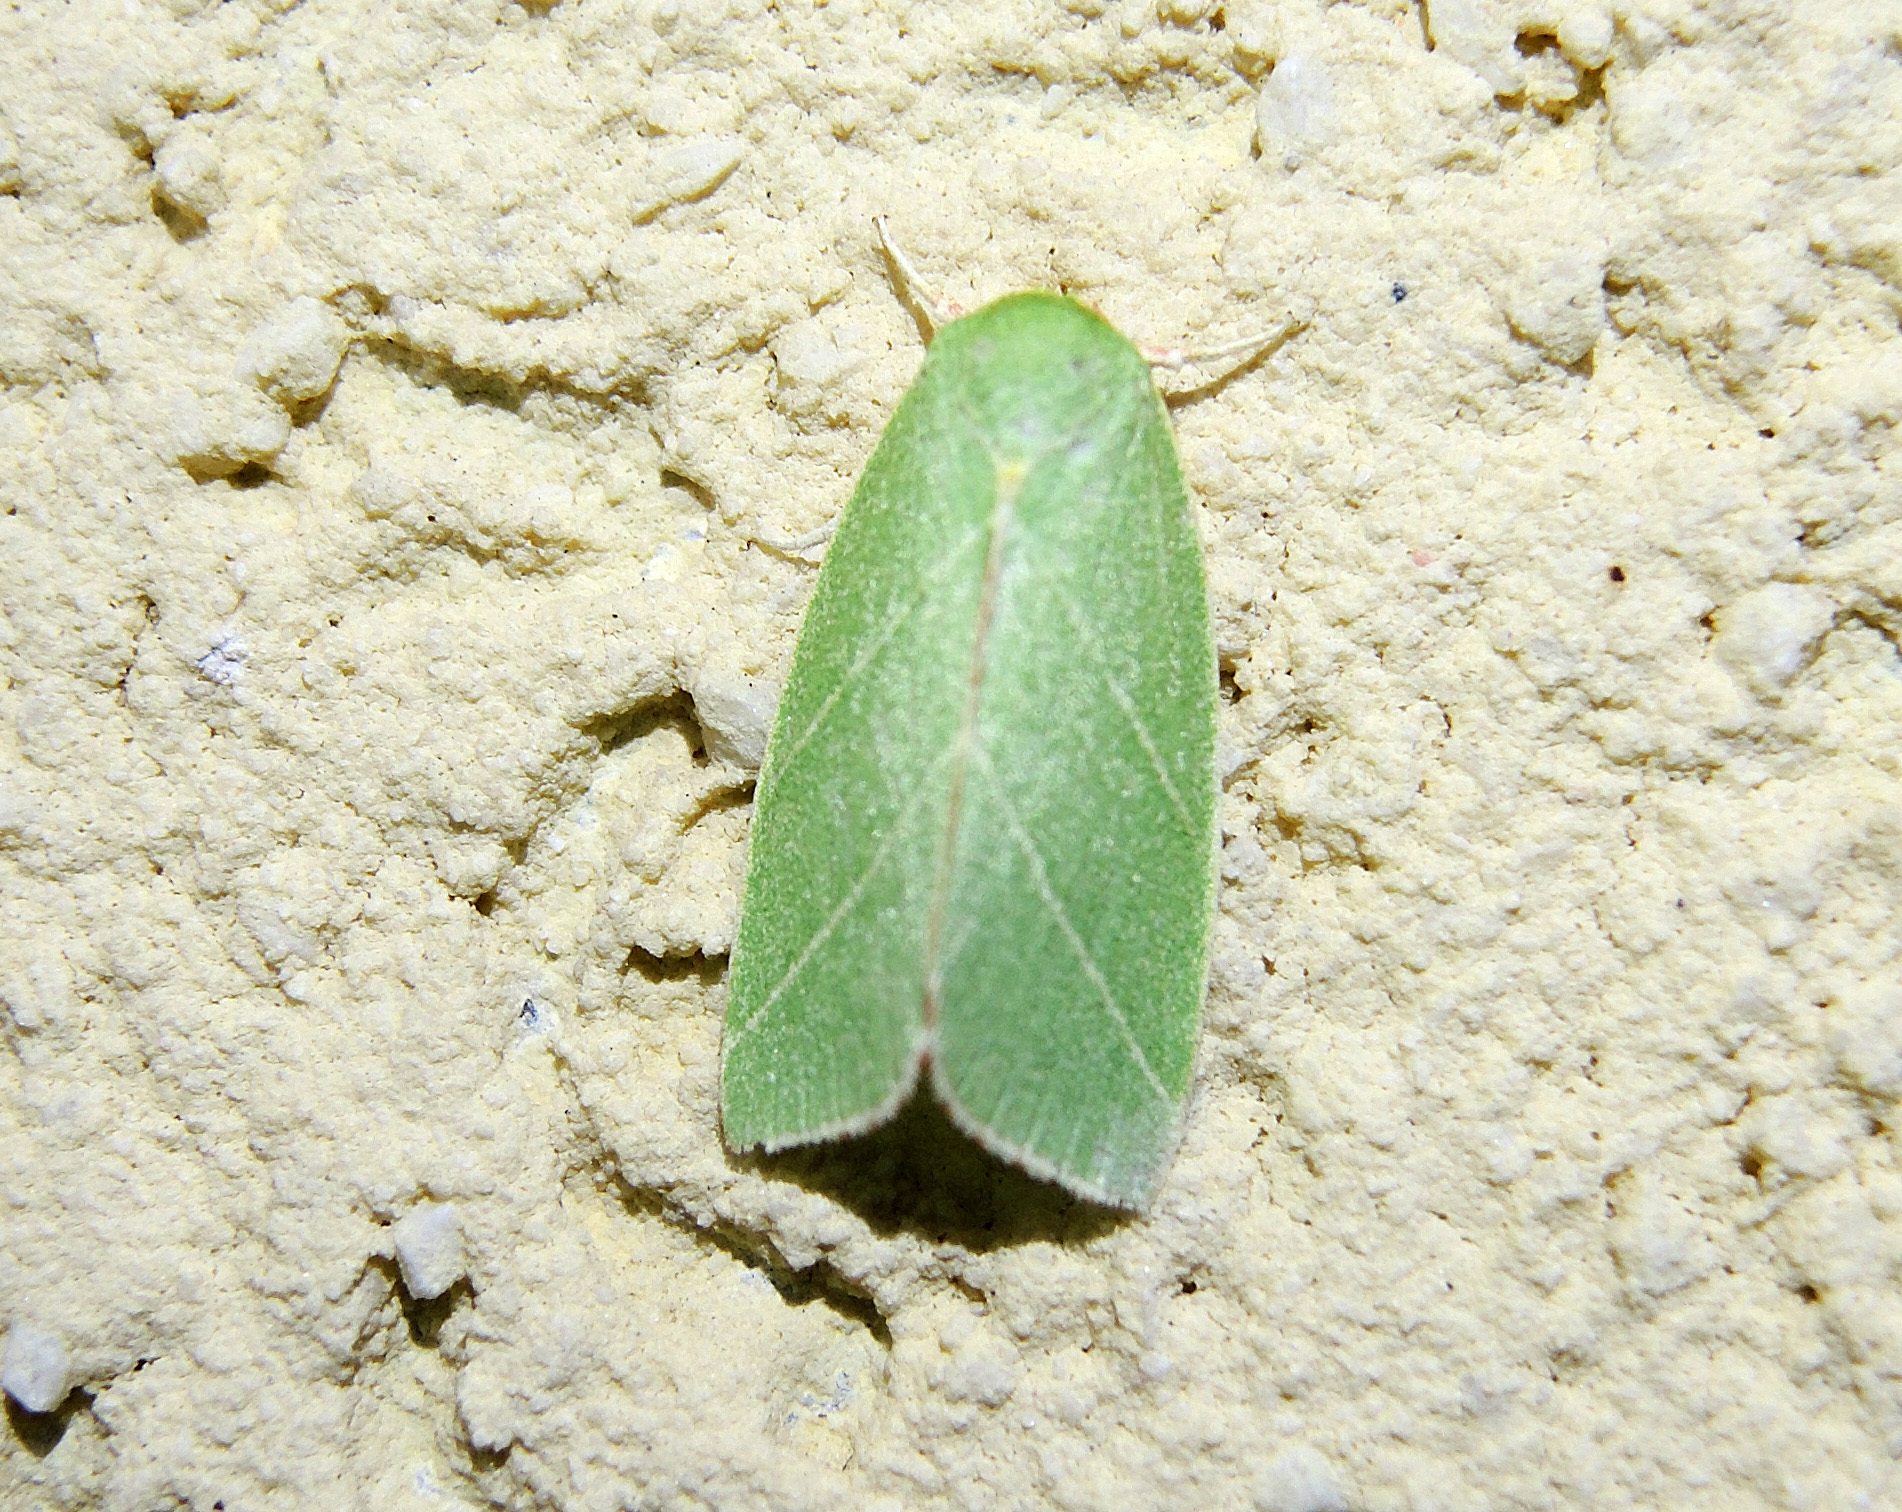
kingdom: Animalia
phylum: Arthropoda
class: Insecta
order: Lepidoptera
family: Nolidae
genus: Bena
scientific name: Bena bicolorana
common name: Scarce silver-lines
